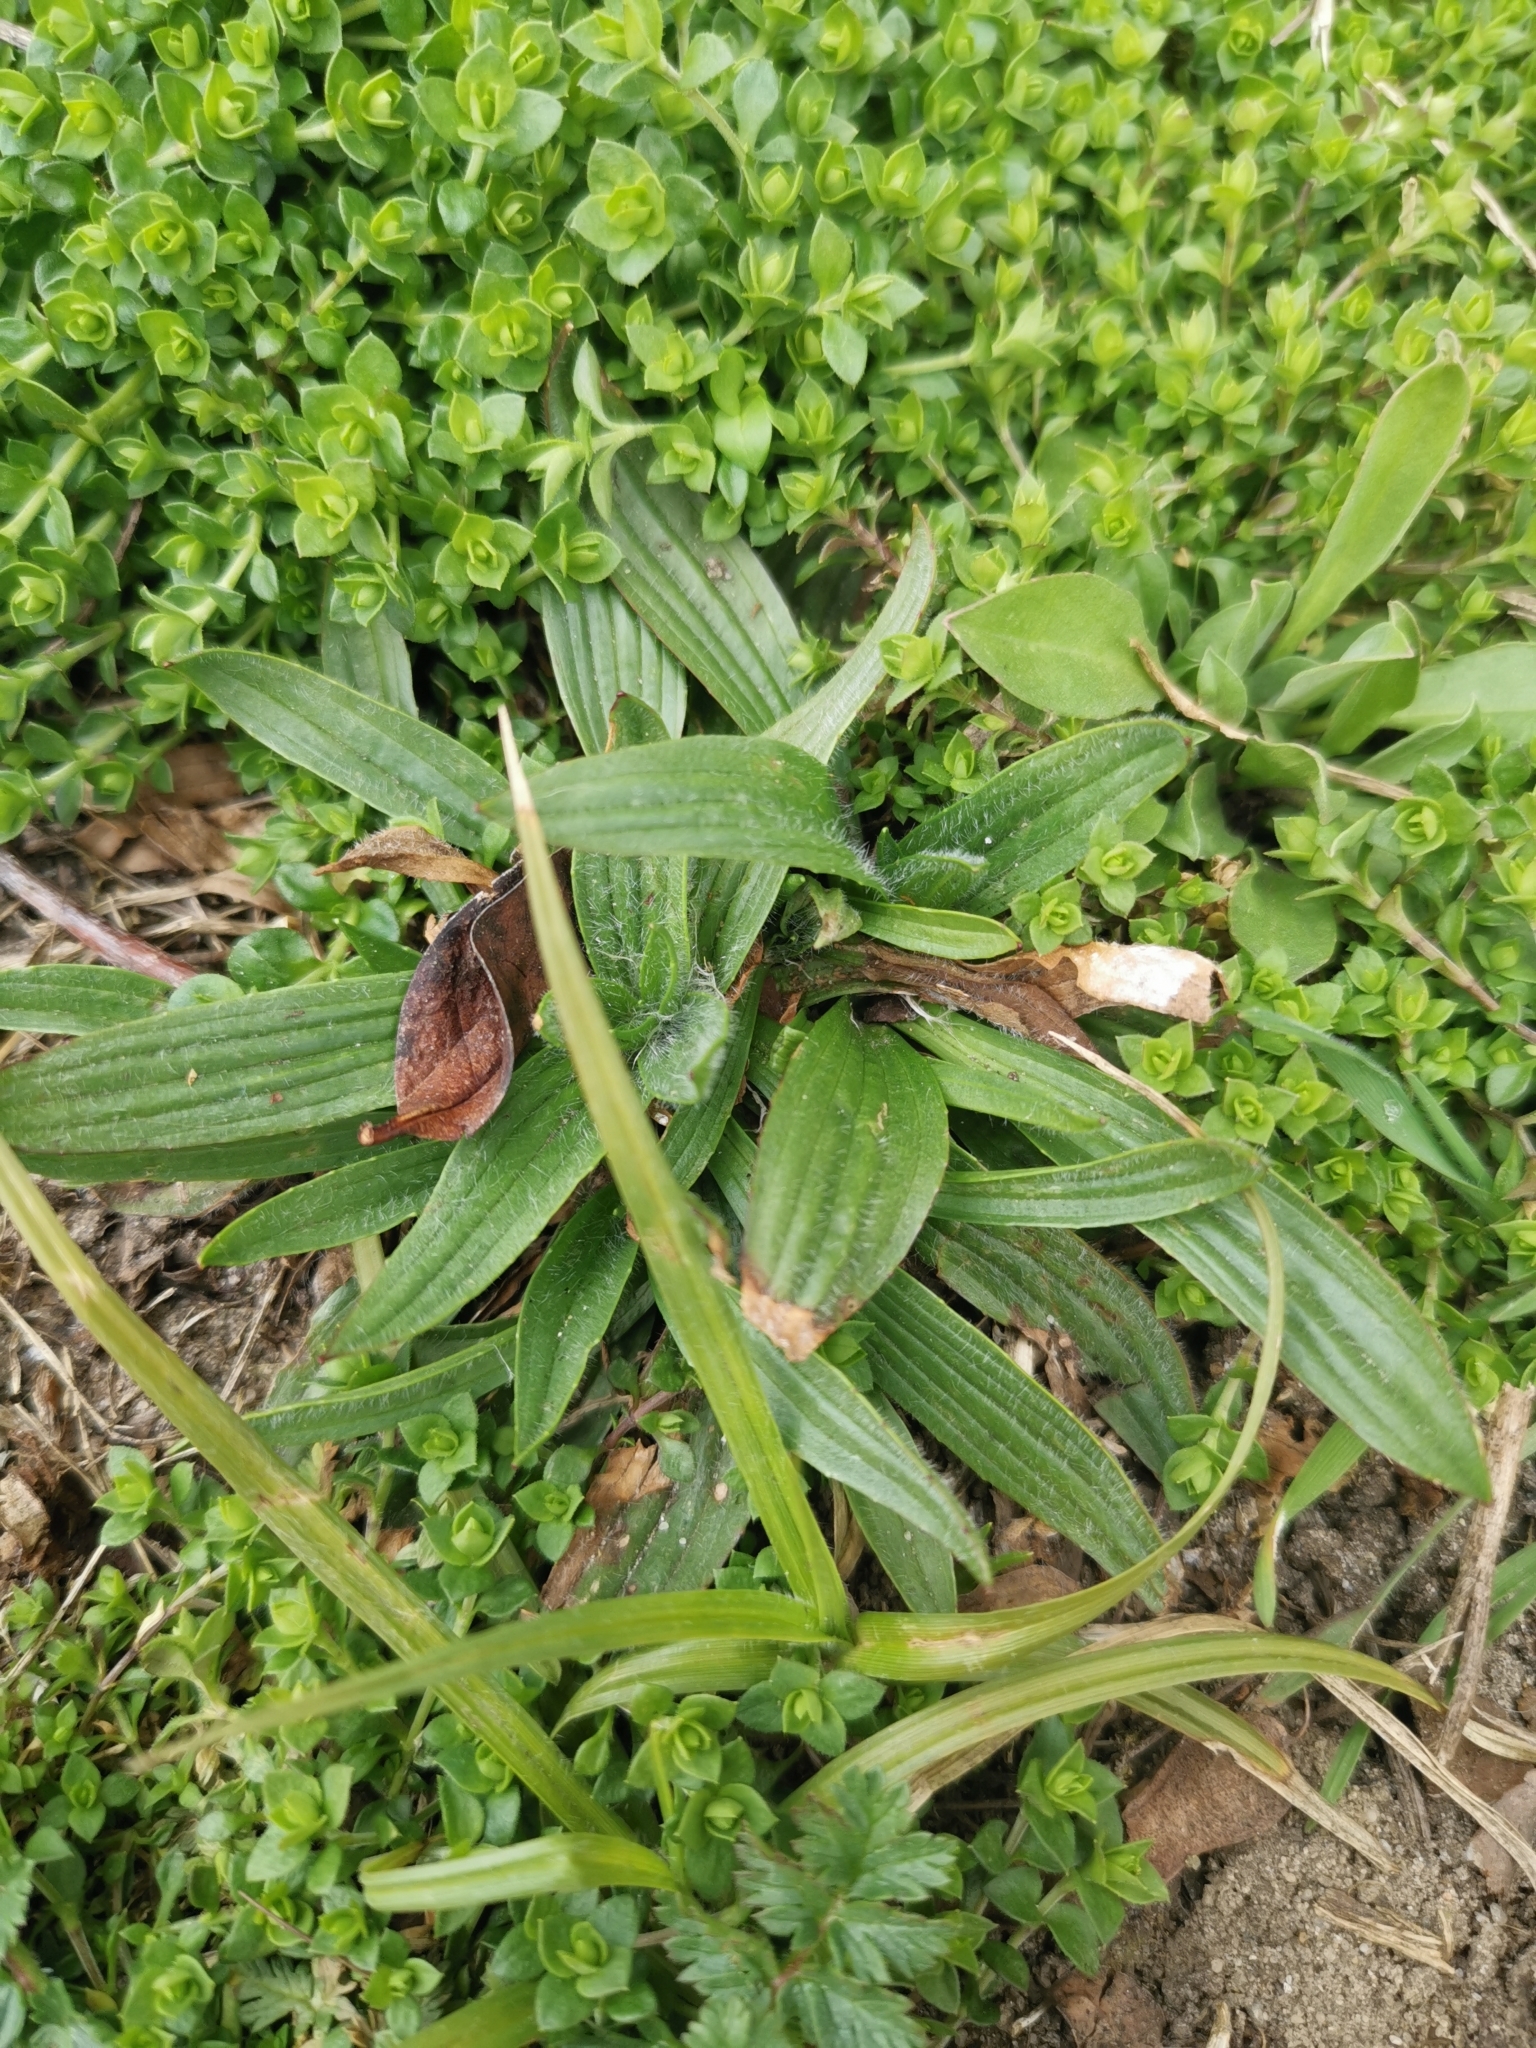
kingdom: Plantae
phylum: Tracheophyta
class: Magnoliopsida
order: Lamiales
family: Plantaginaceae
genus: Plantago
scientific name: Plantago lanceolata
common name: Ribwort plantain
